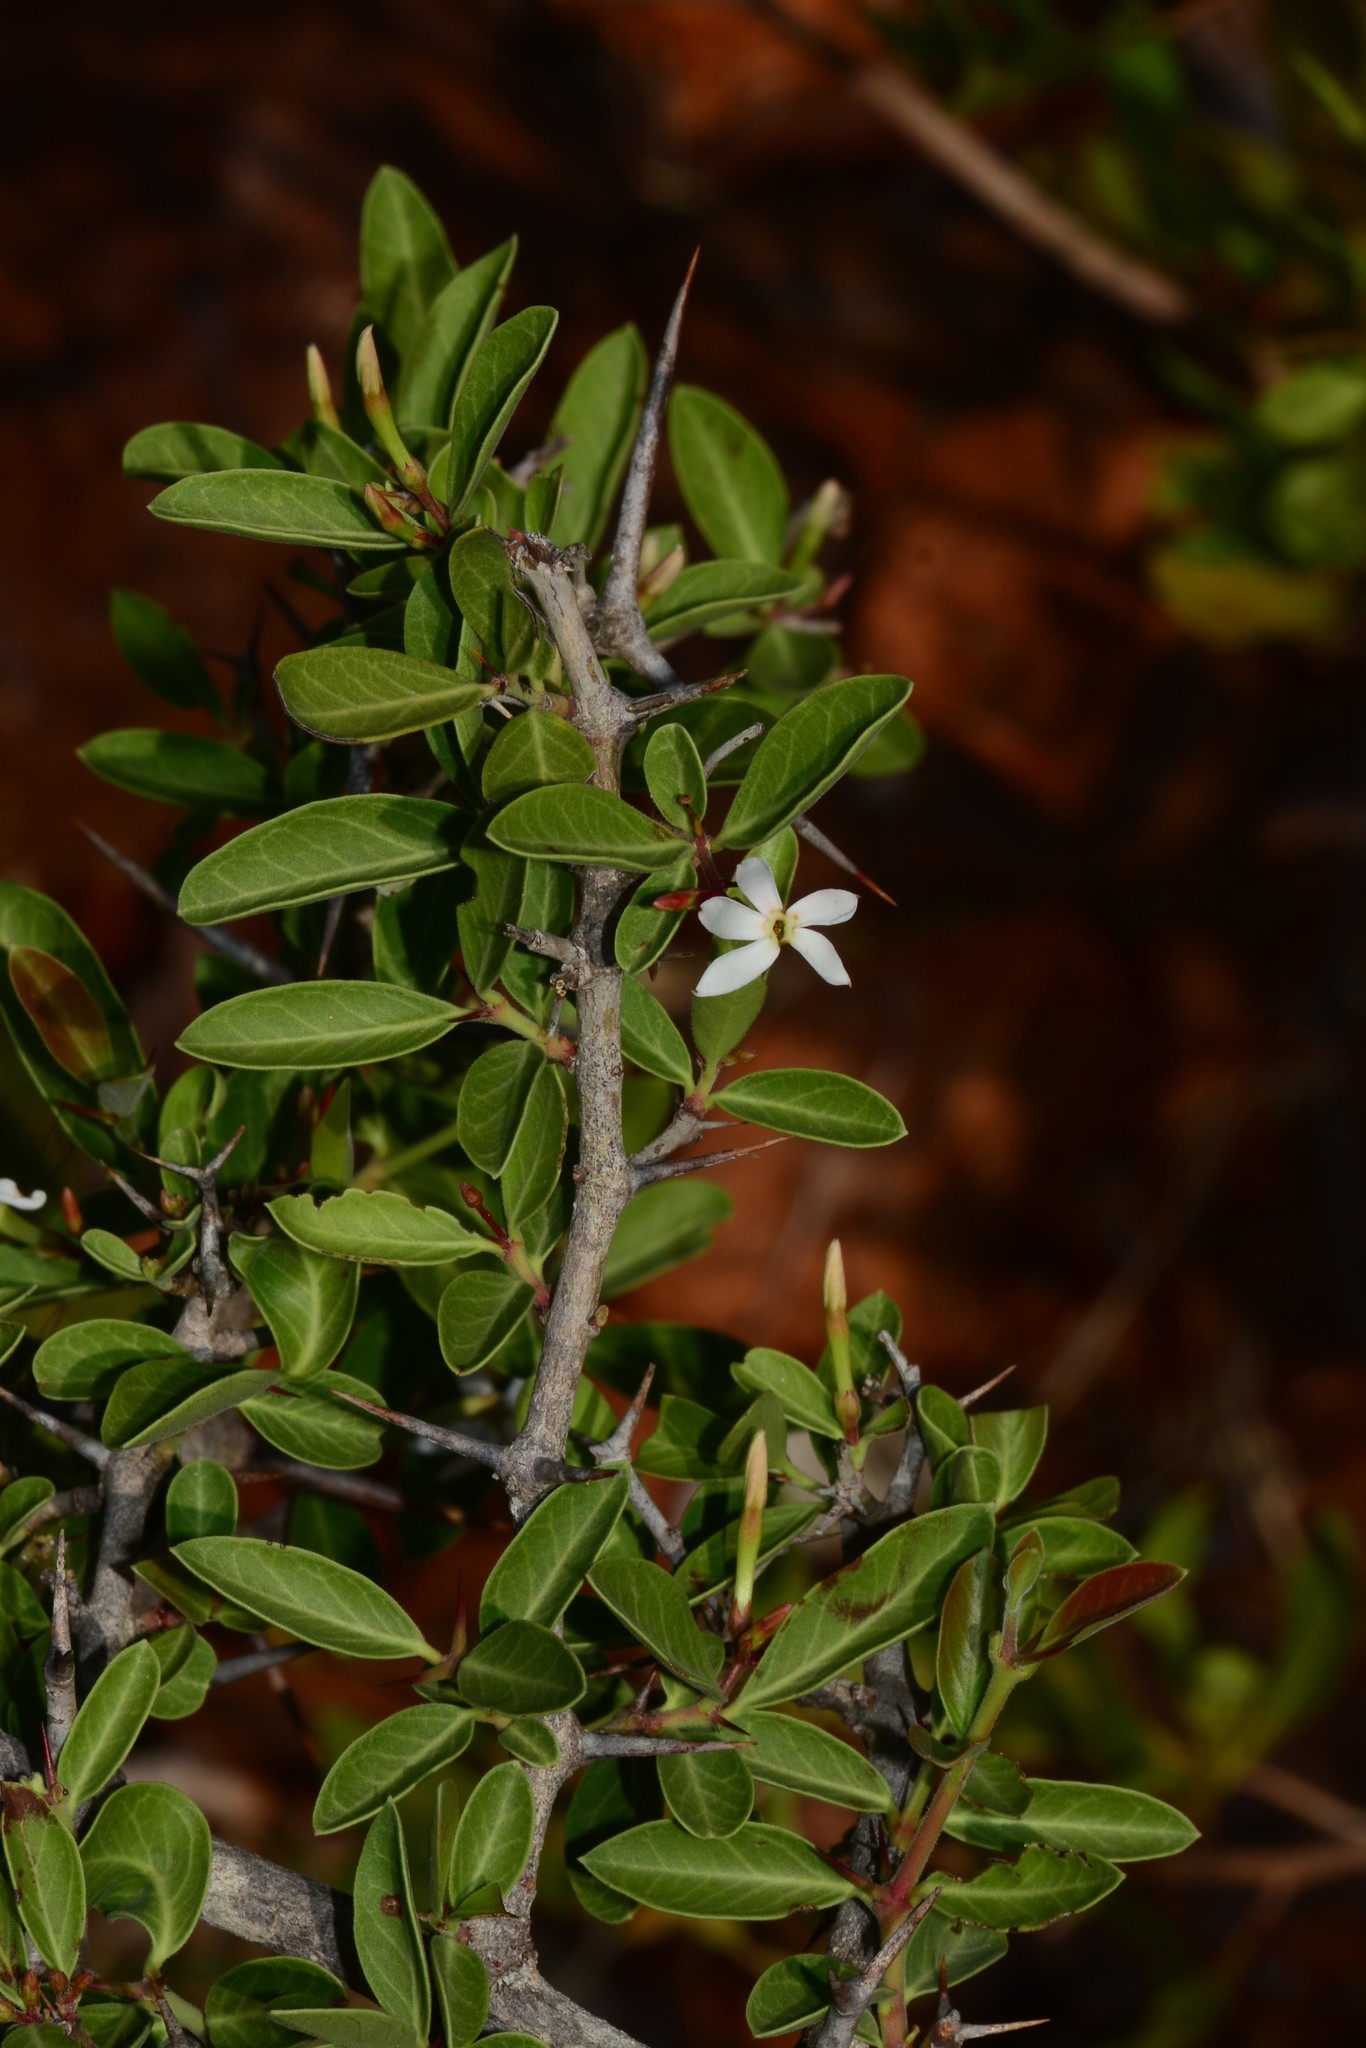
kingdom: Plantae
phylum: Tracheophyta
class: Magnoliopsida
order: Gentianales
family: Apocynaceae
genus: Carissa
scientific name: Carissa spinarum
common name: Egyptian carissa
